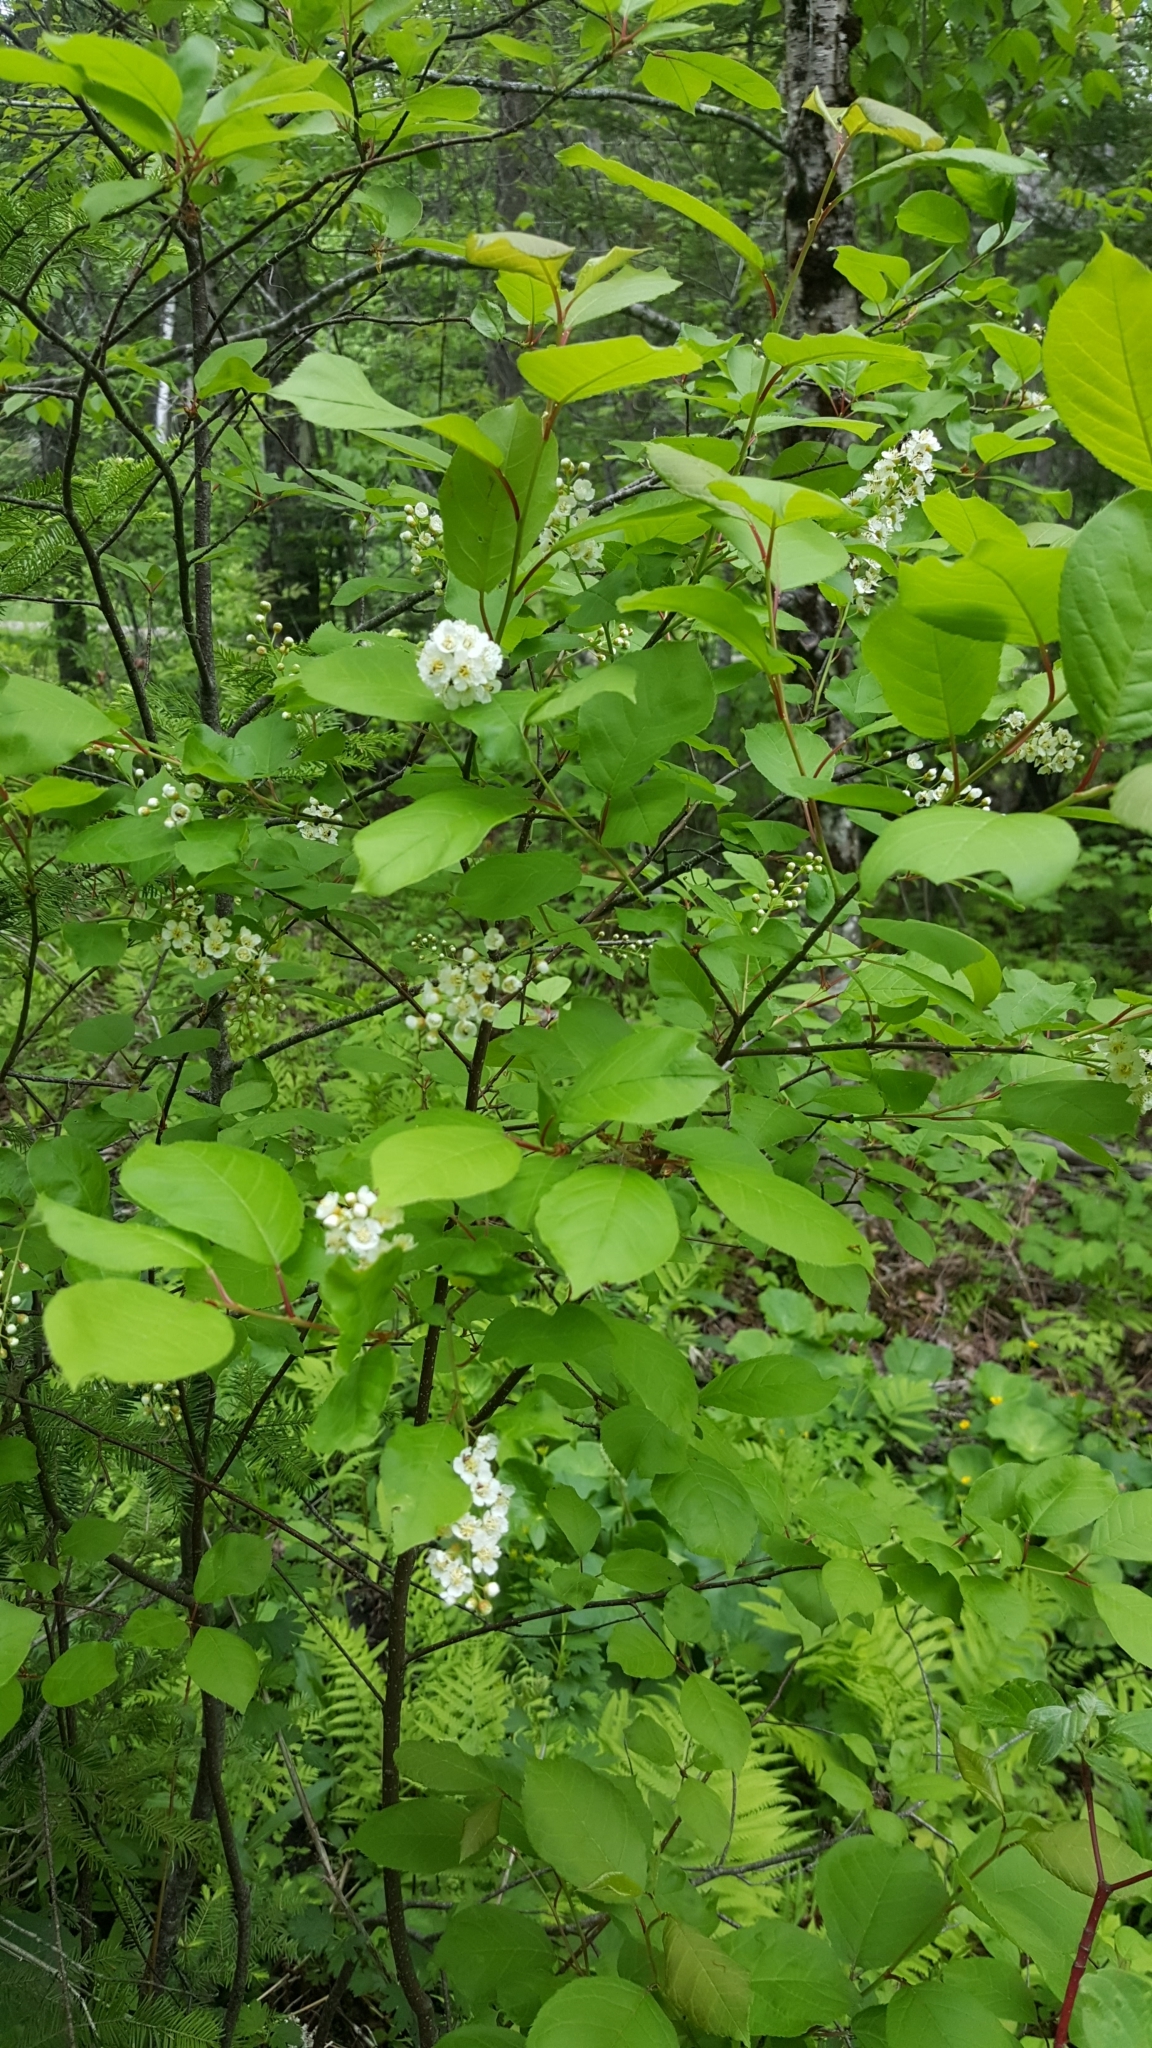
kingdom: Plantae
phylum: Tracheophyta
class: Magnoliopsida
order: Rosales
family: Rosaceae
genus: Prunus
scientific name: Prunus virginiana
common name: Chokecherry
